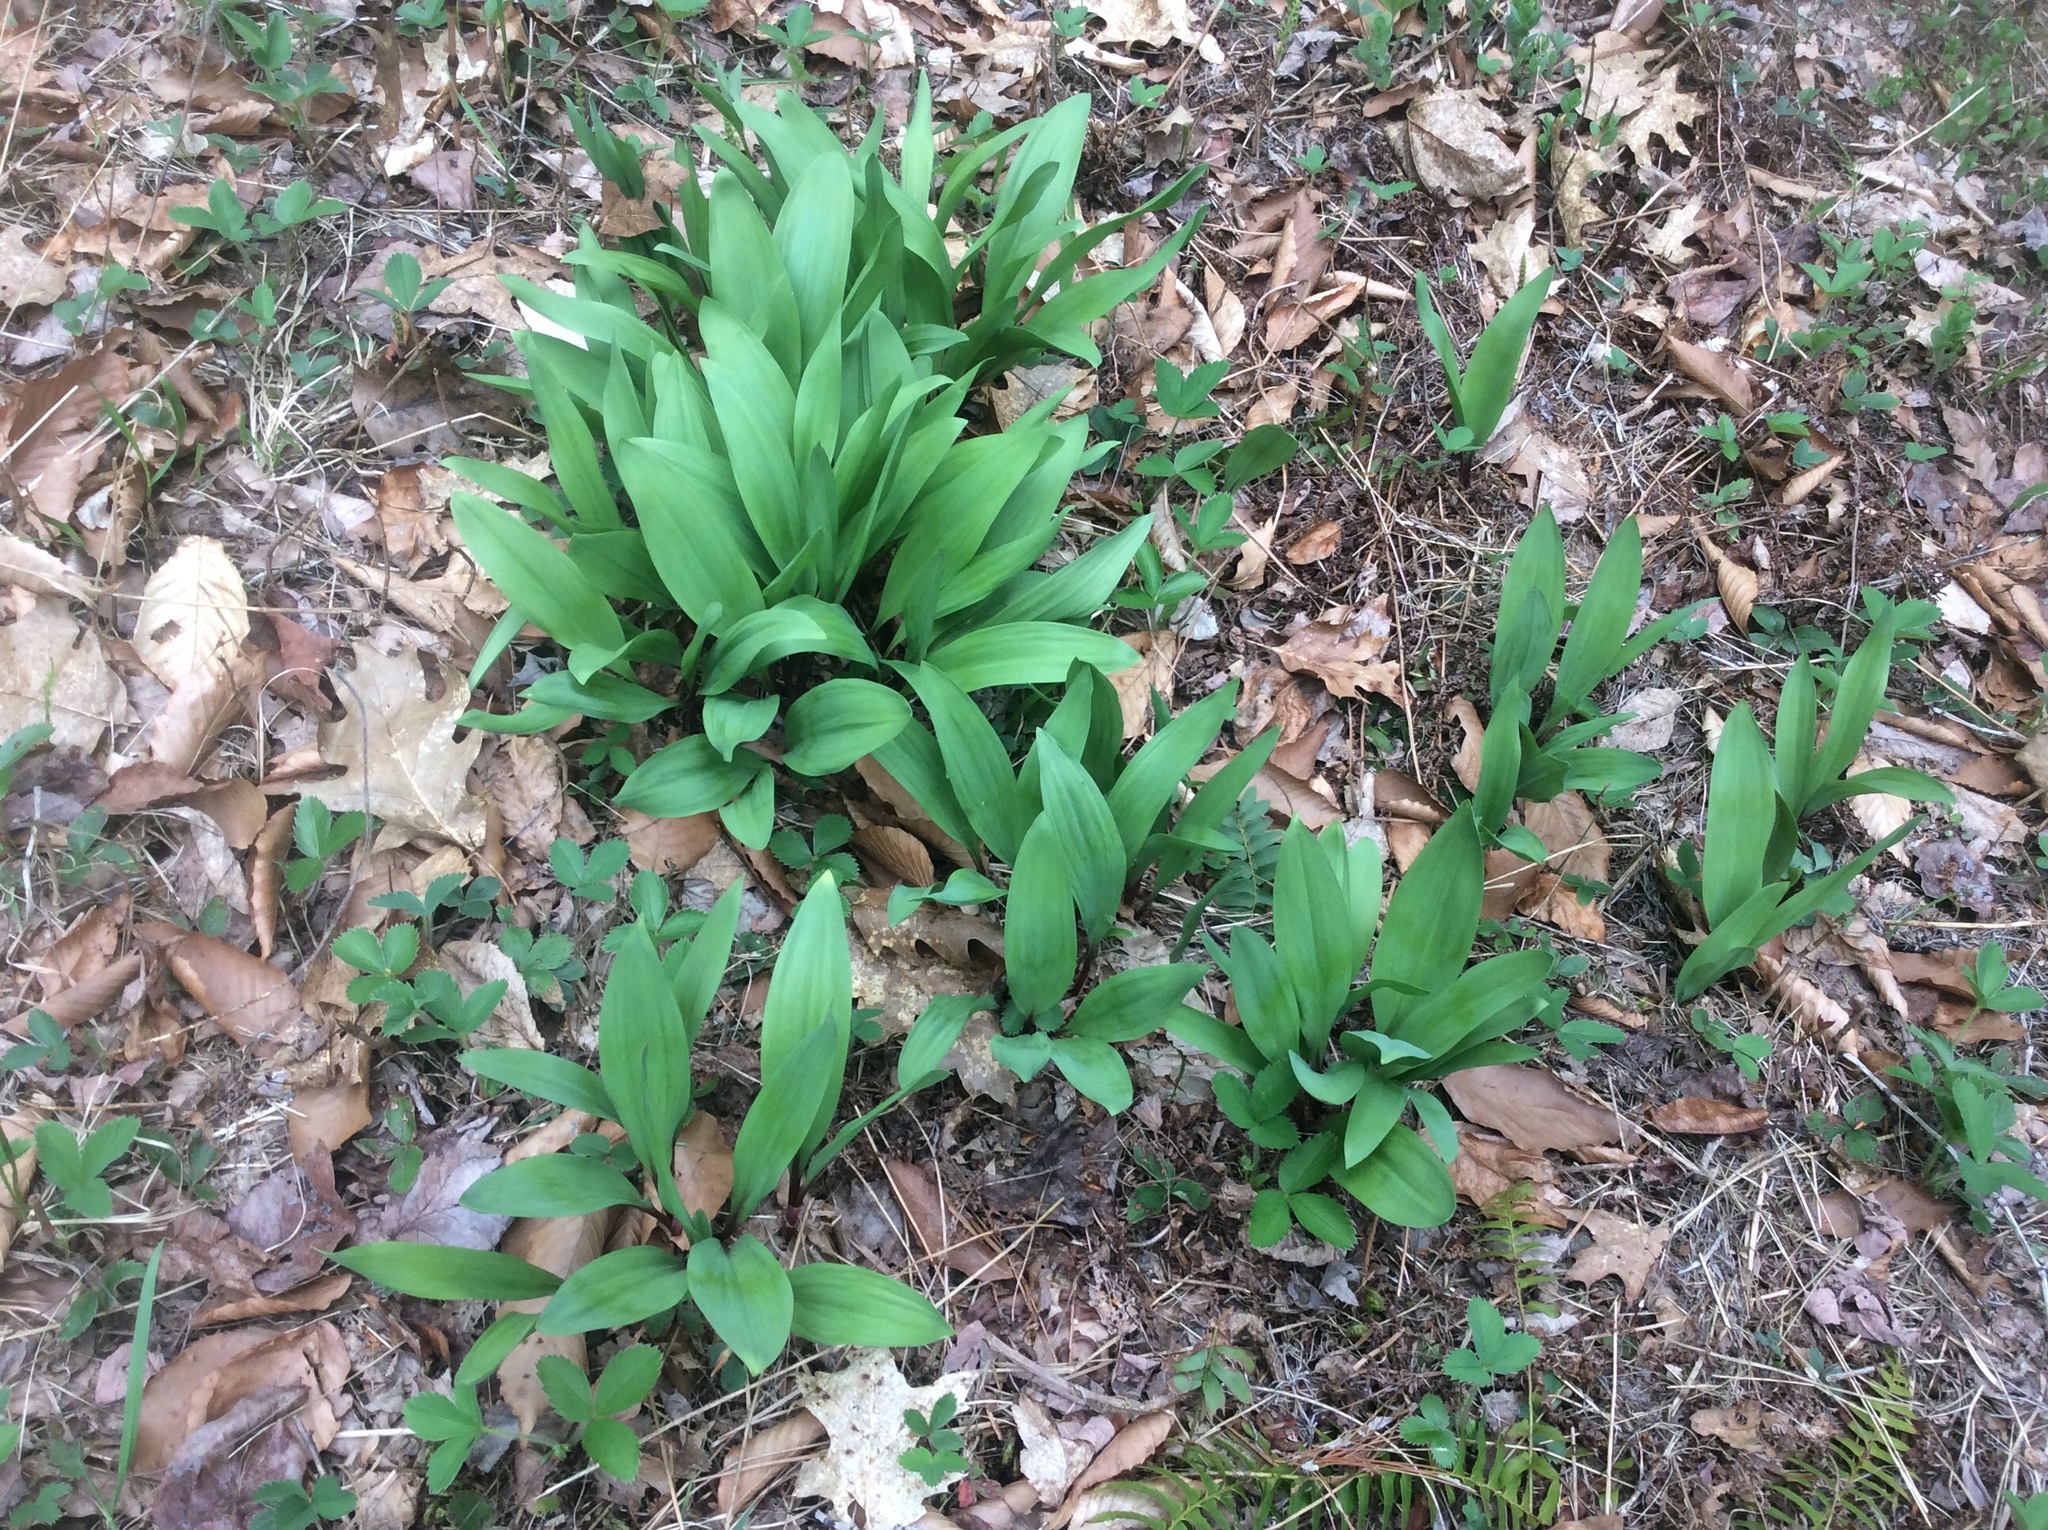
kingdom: Plantae
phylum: Tracheophyta
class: Liliopsida
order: Asparagales
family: Amaryllidaceae
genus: Allium
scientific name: Allium tricoccum
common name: Ramp
